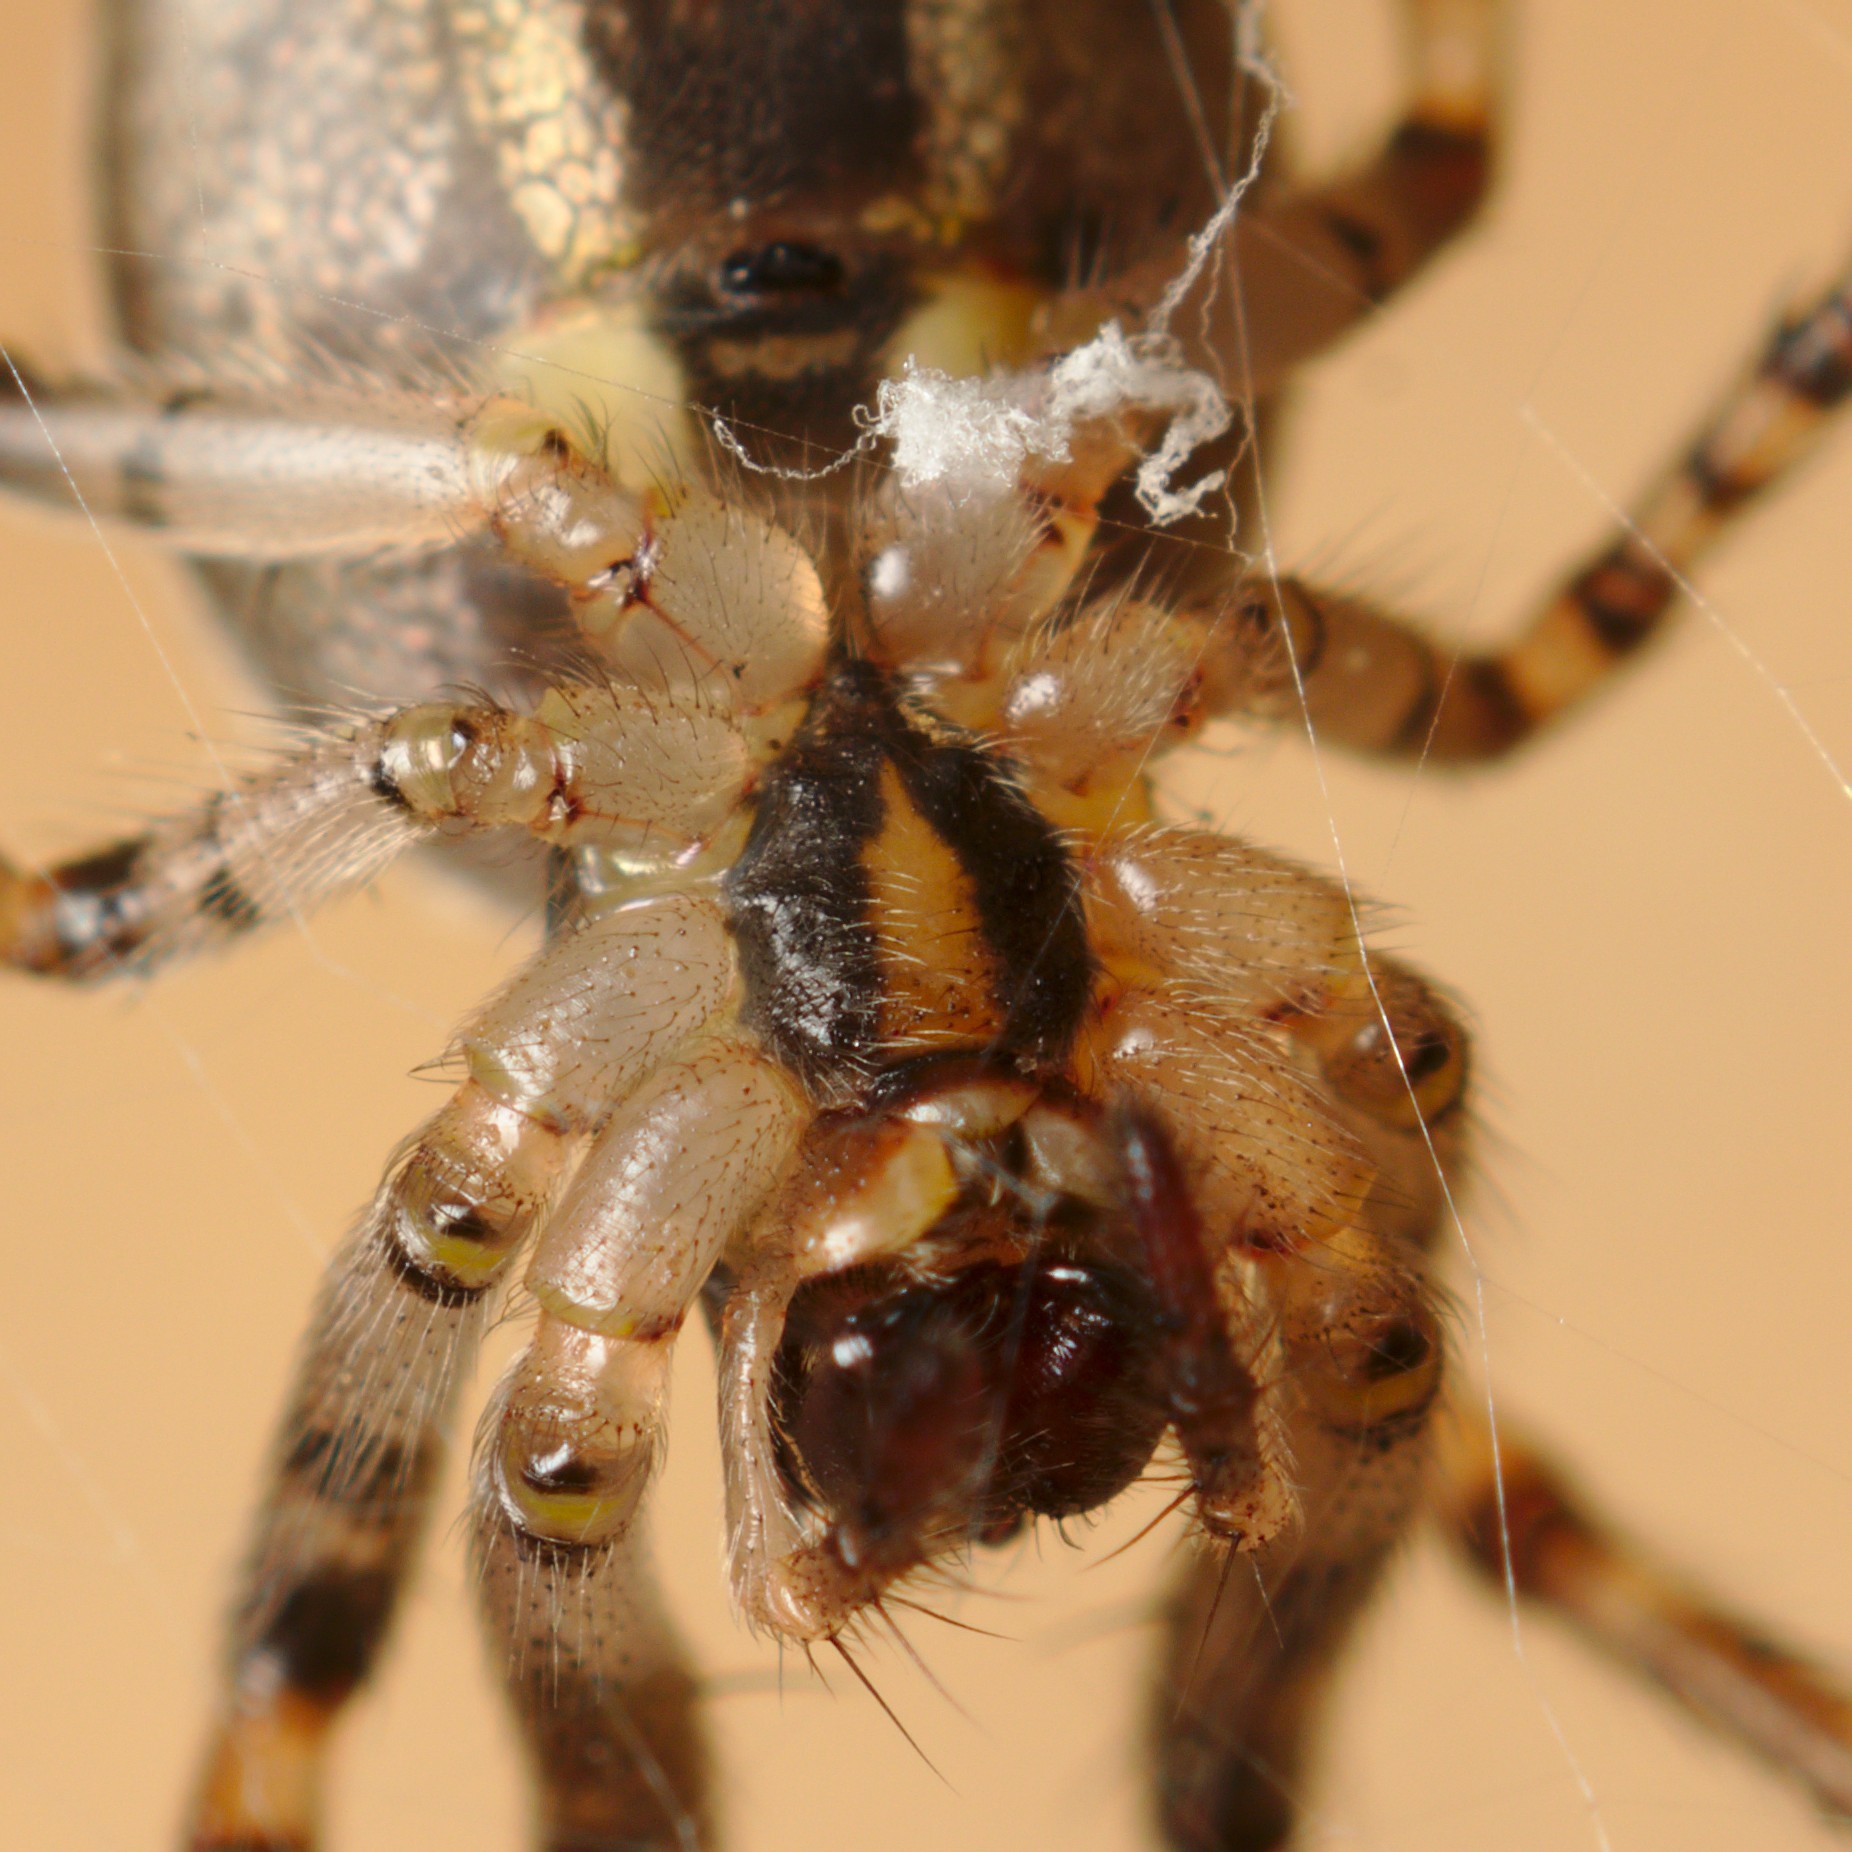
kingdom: Animalia
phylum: Arthropoda
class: Arachnida
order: Araneae
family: Araneidae
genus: Zygiella
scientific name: Zygiella x-notata
